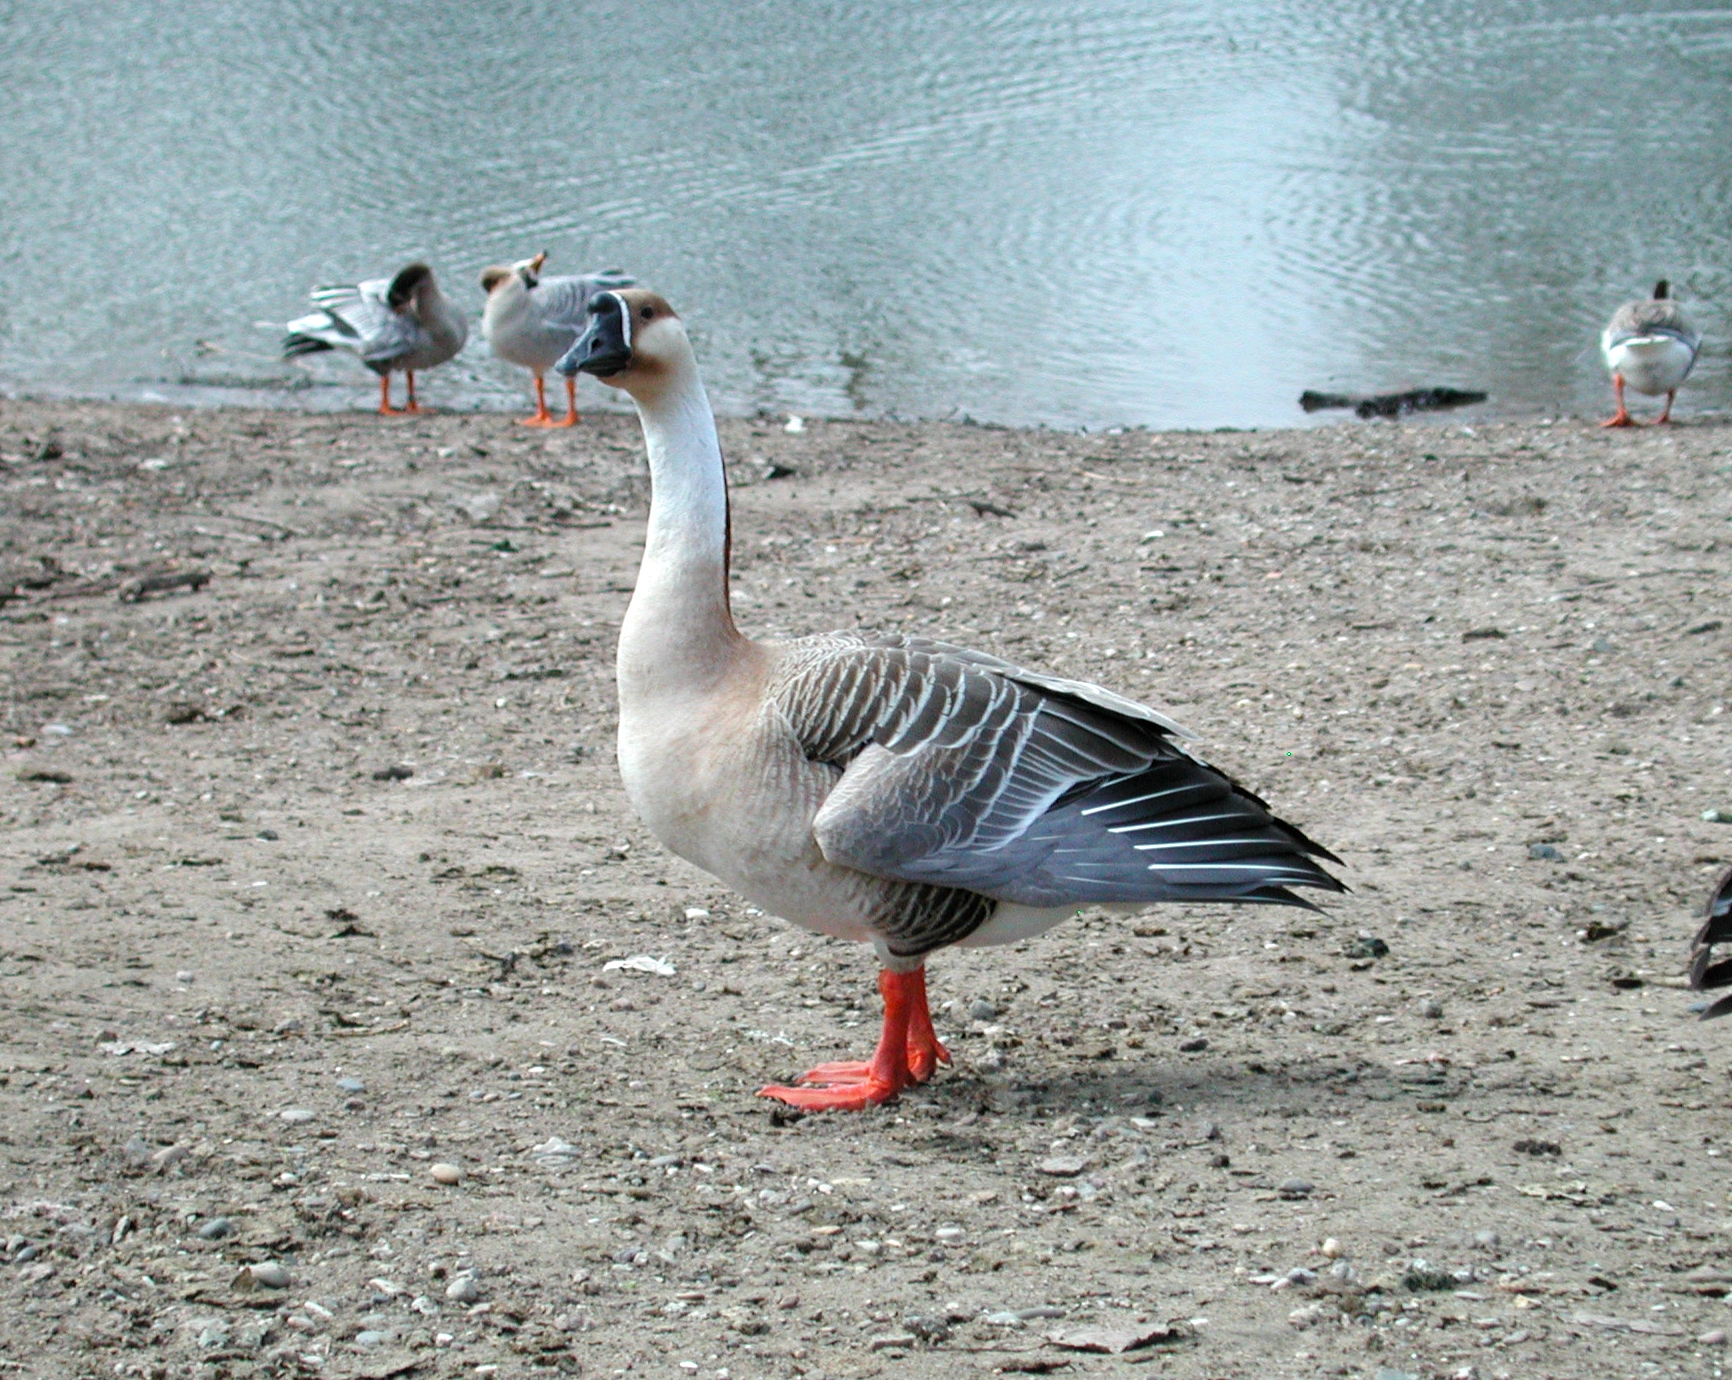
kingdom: Animalia
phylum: Chordata
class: Aves
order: Anseriformes
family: Anatidae
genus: Anser
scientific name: Anser cygnoides
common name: Swan goose
